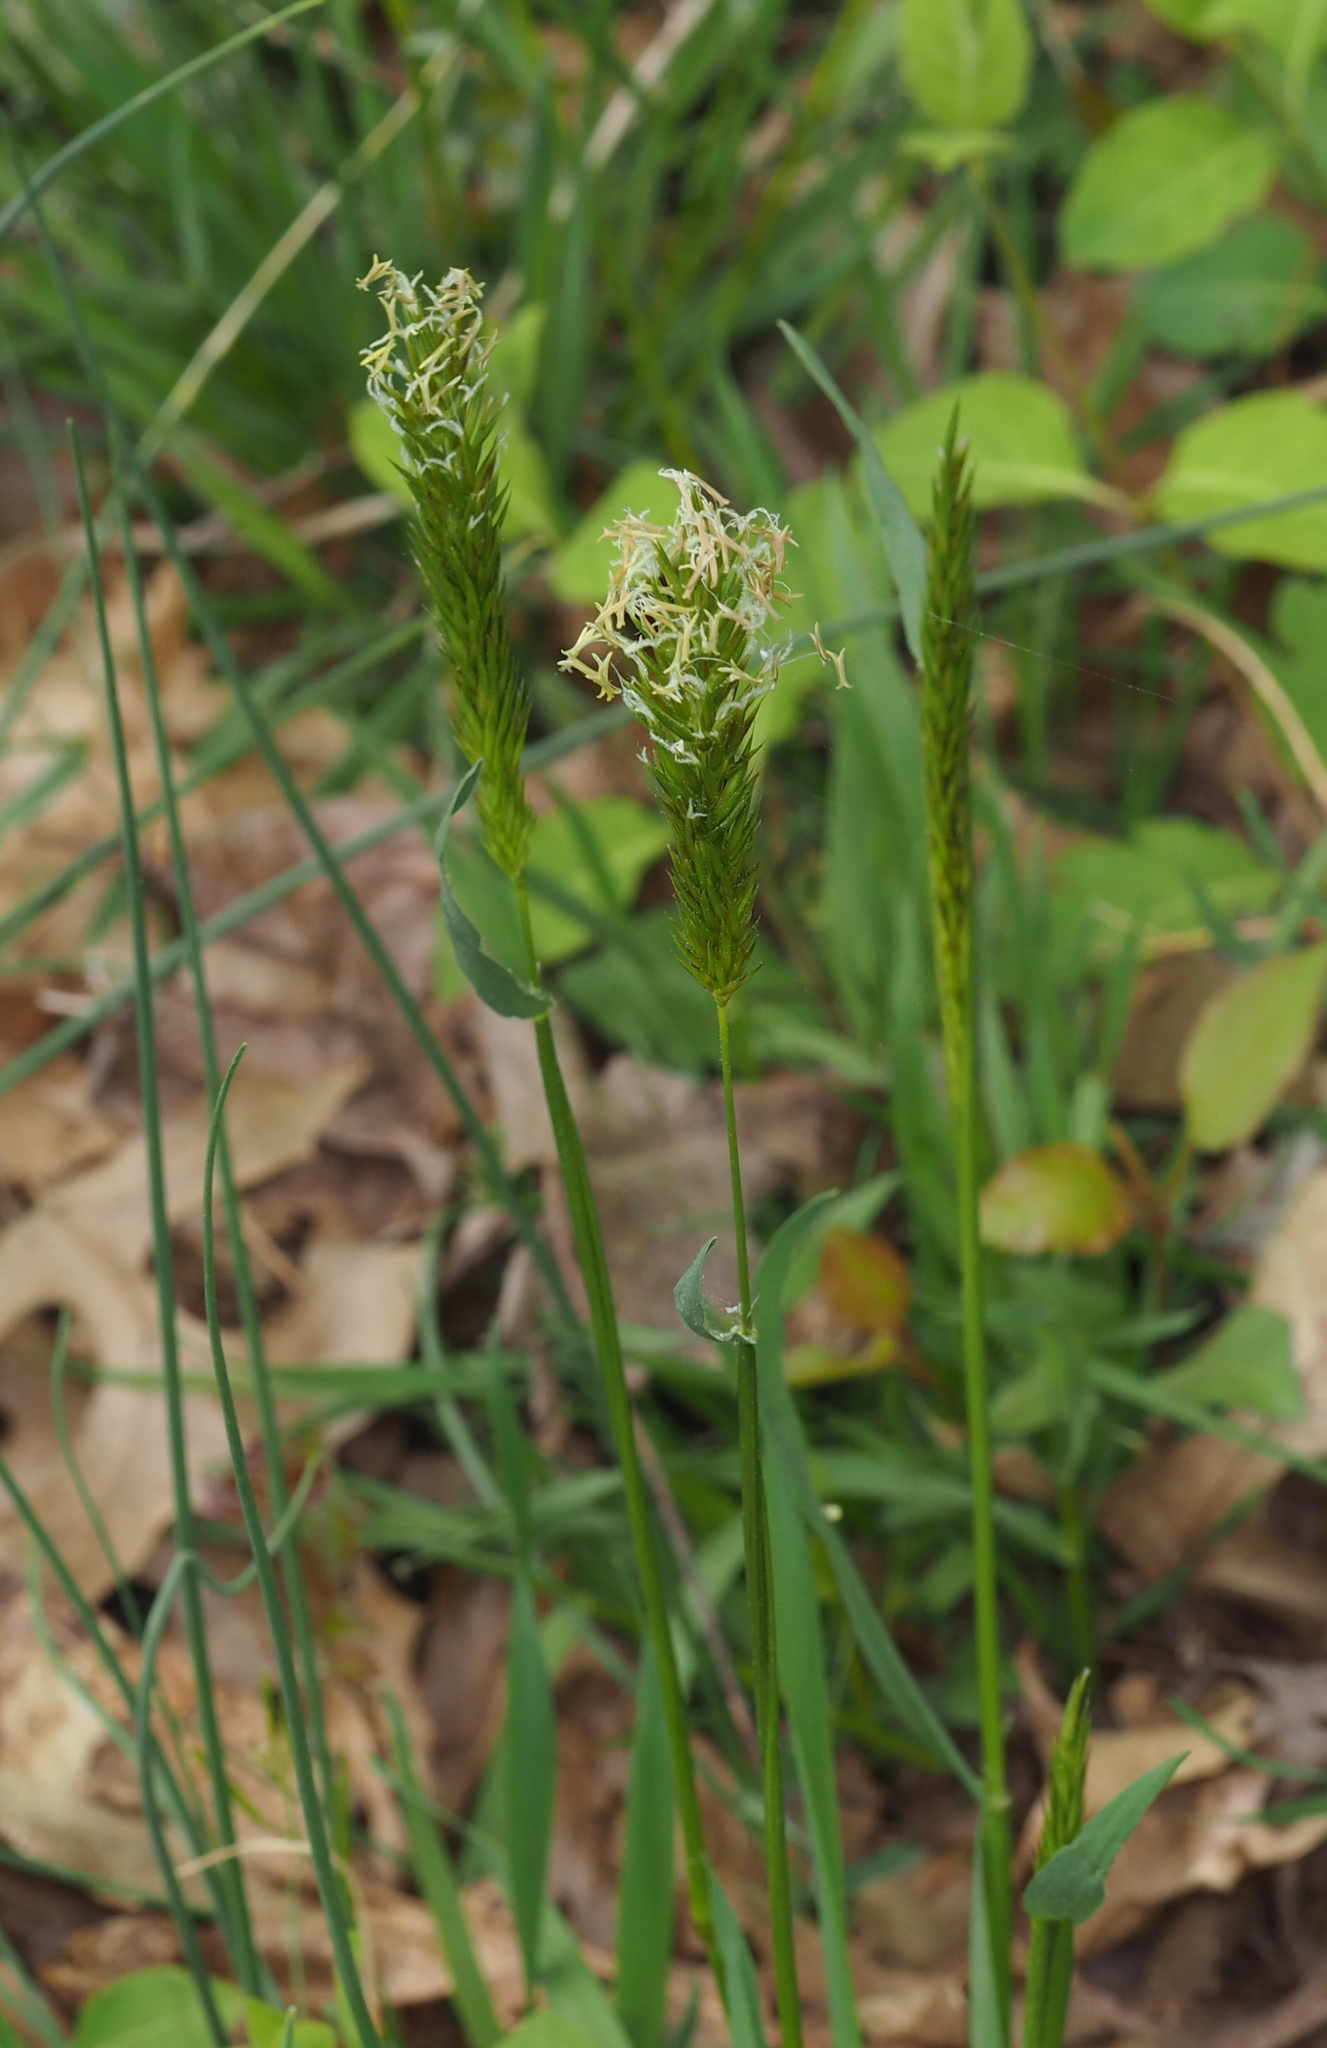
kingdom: Plantae
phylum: Tracheophyta
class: Liliopsida
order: Poales
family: Poaceae
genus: Anthoxanthum
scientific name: Anthoxanthum odoratum
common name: Sweet vernalgrass
